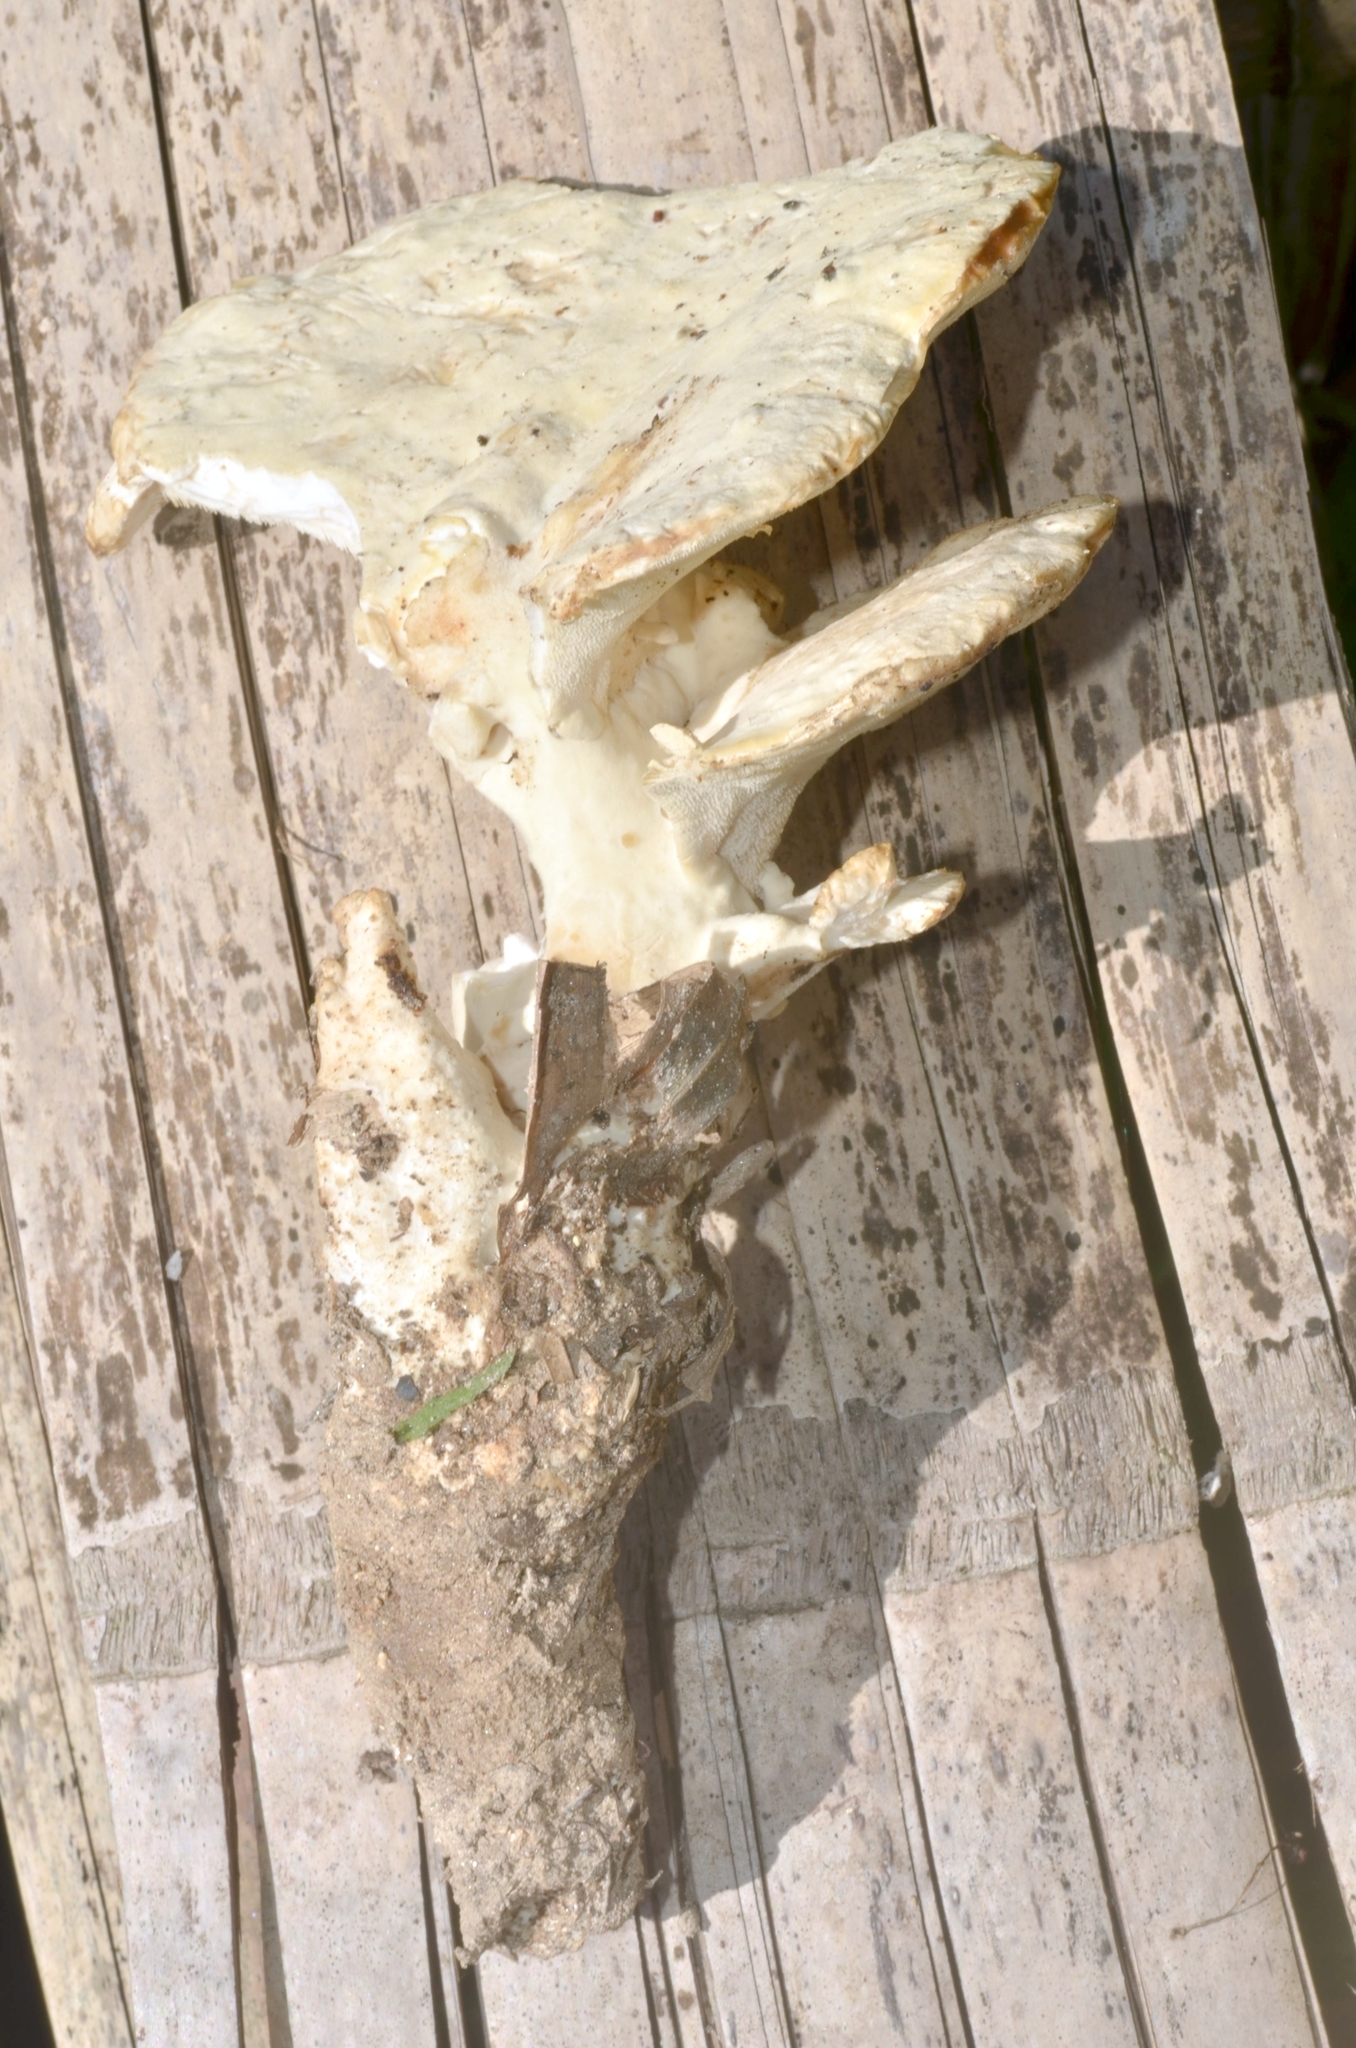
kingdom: Fungi
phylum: Basidiomycota
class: Agaricomycetes
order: Polyporales
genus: Mycorrhaphoides
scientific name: Mycorrhaphoides stalpersii
